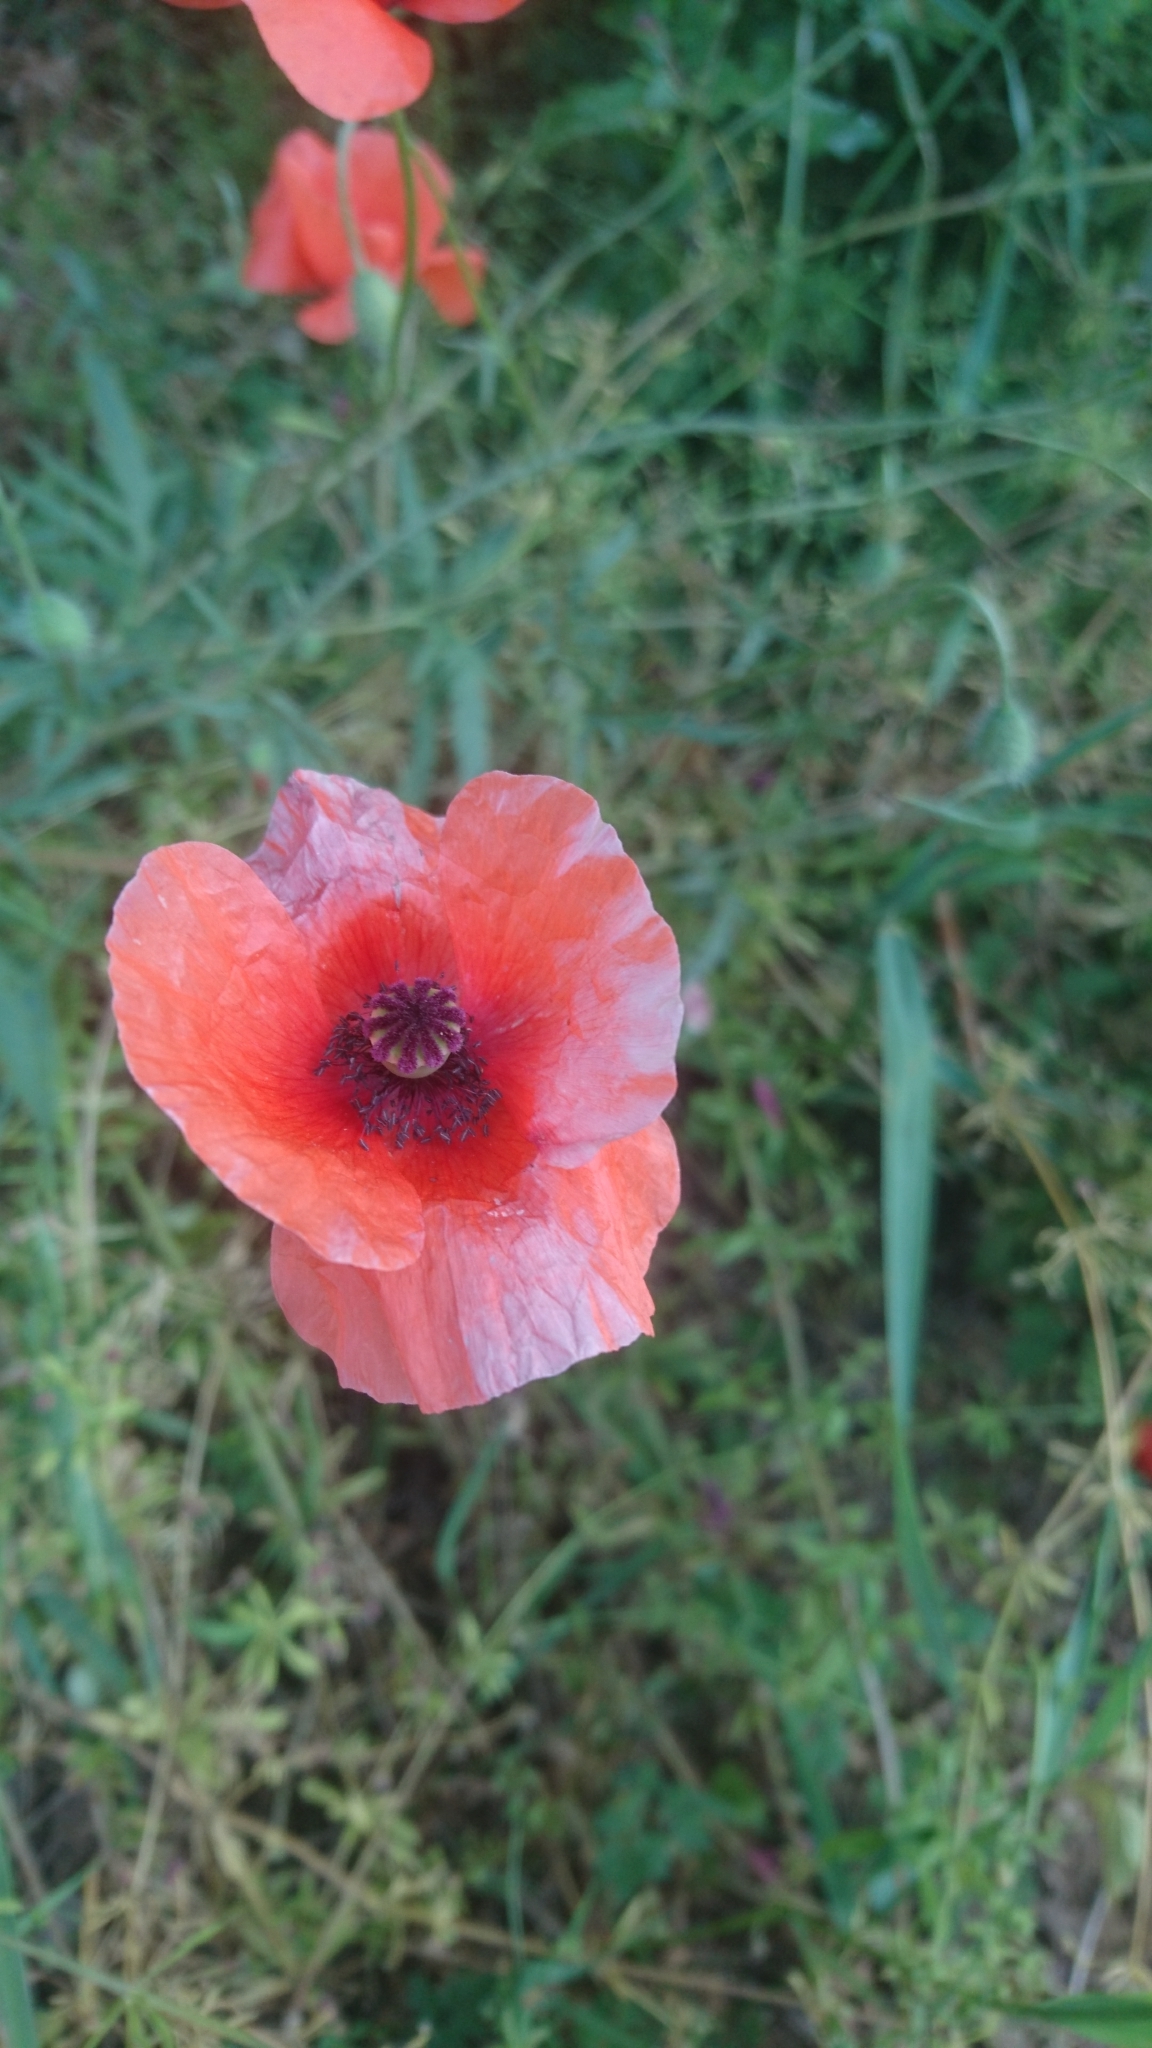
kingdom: Plantae
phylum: Tracheophyta
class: Magnoliopsida
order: Ranunculales
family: Papaveraceae
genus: Papaver
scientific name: Papaver rhoeas
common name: Corn poppy
